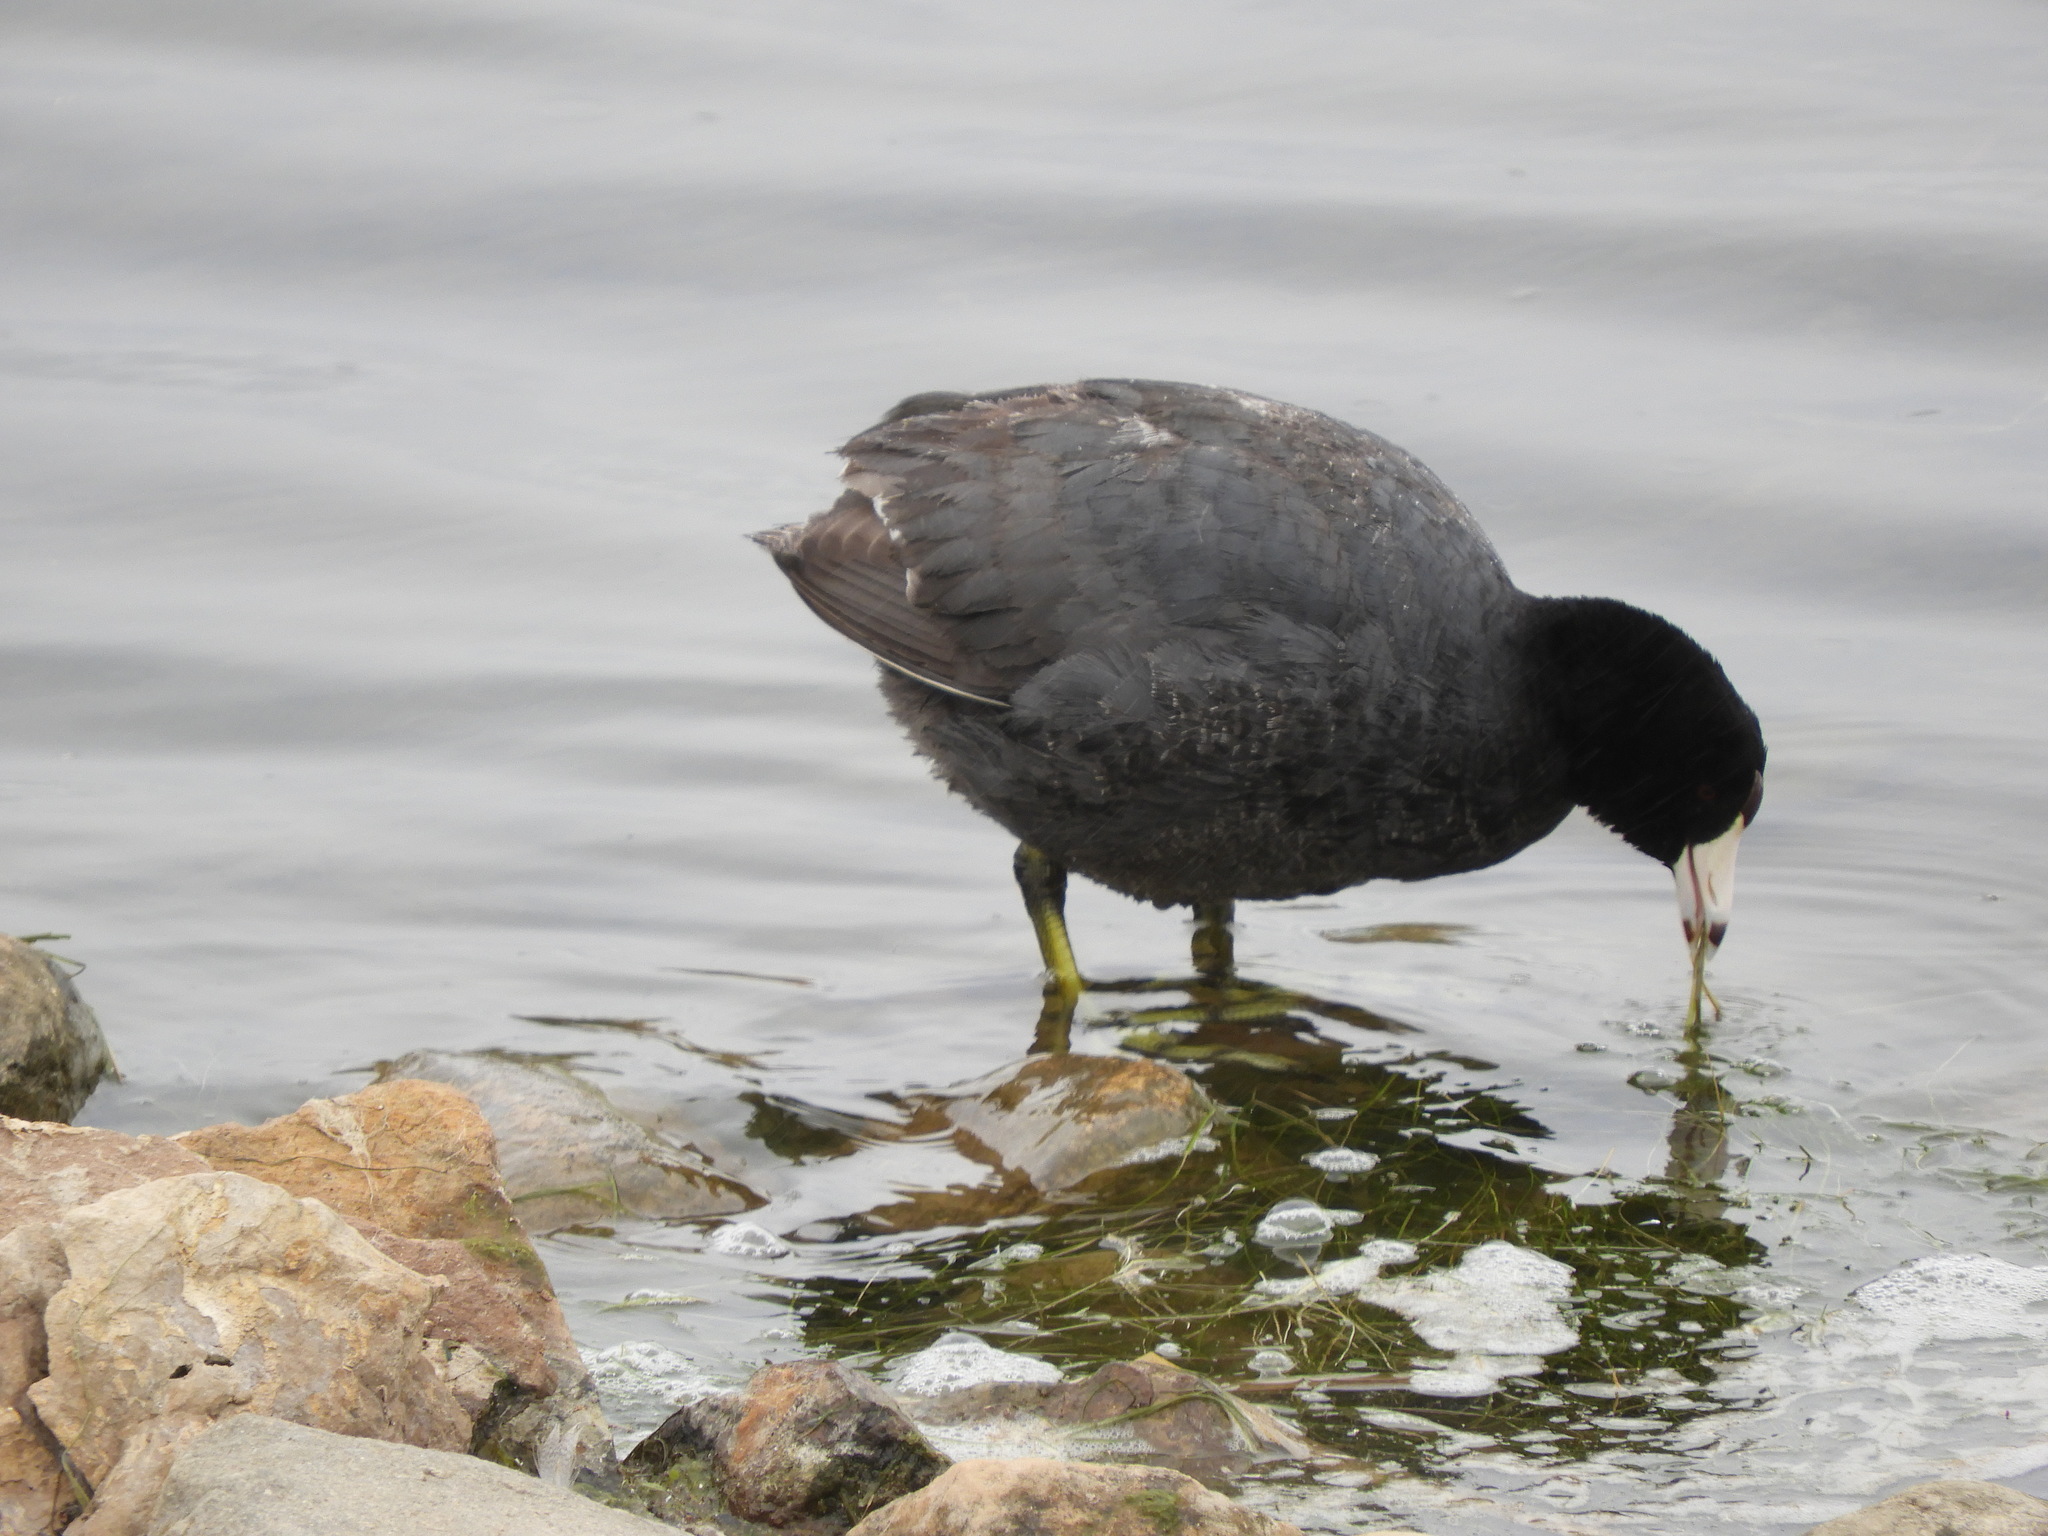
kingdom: Animalia
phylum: Chordata
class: Aves
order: Gruiformes
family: Rallidae
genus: Fulica
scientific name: Fulica americana
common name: American coot
